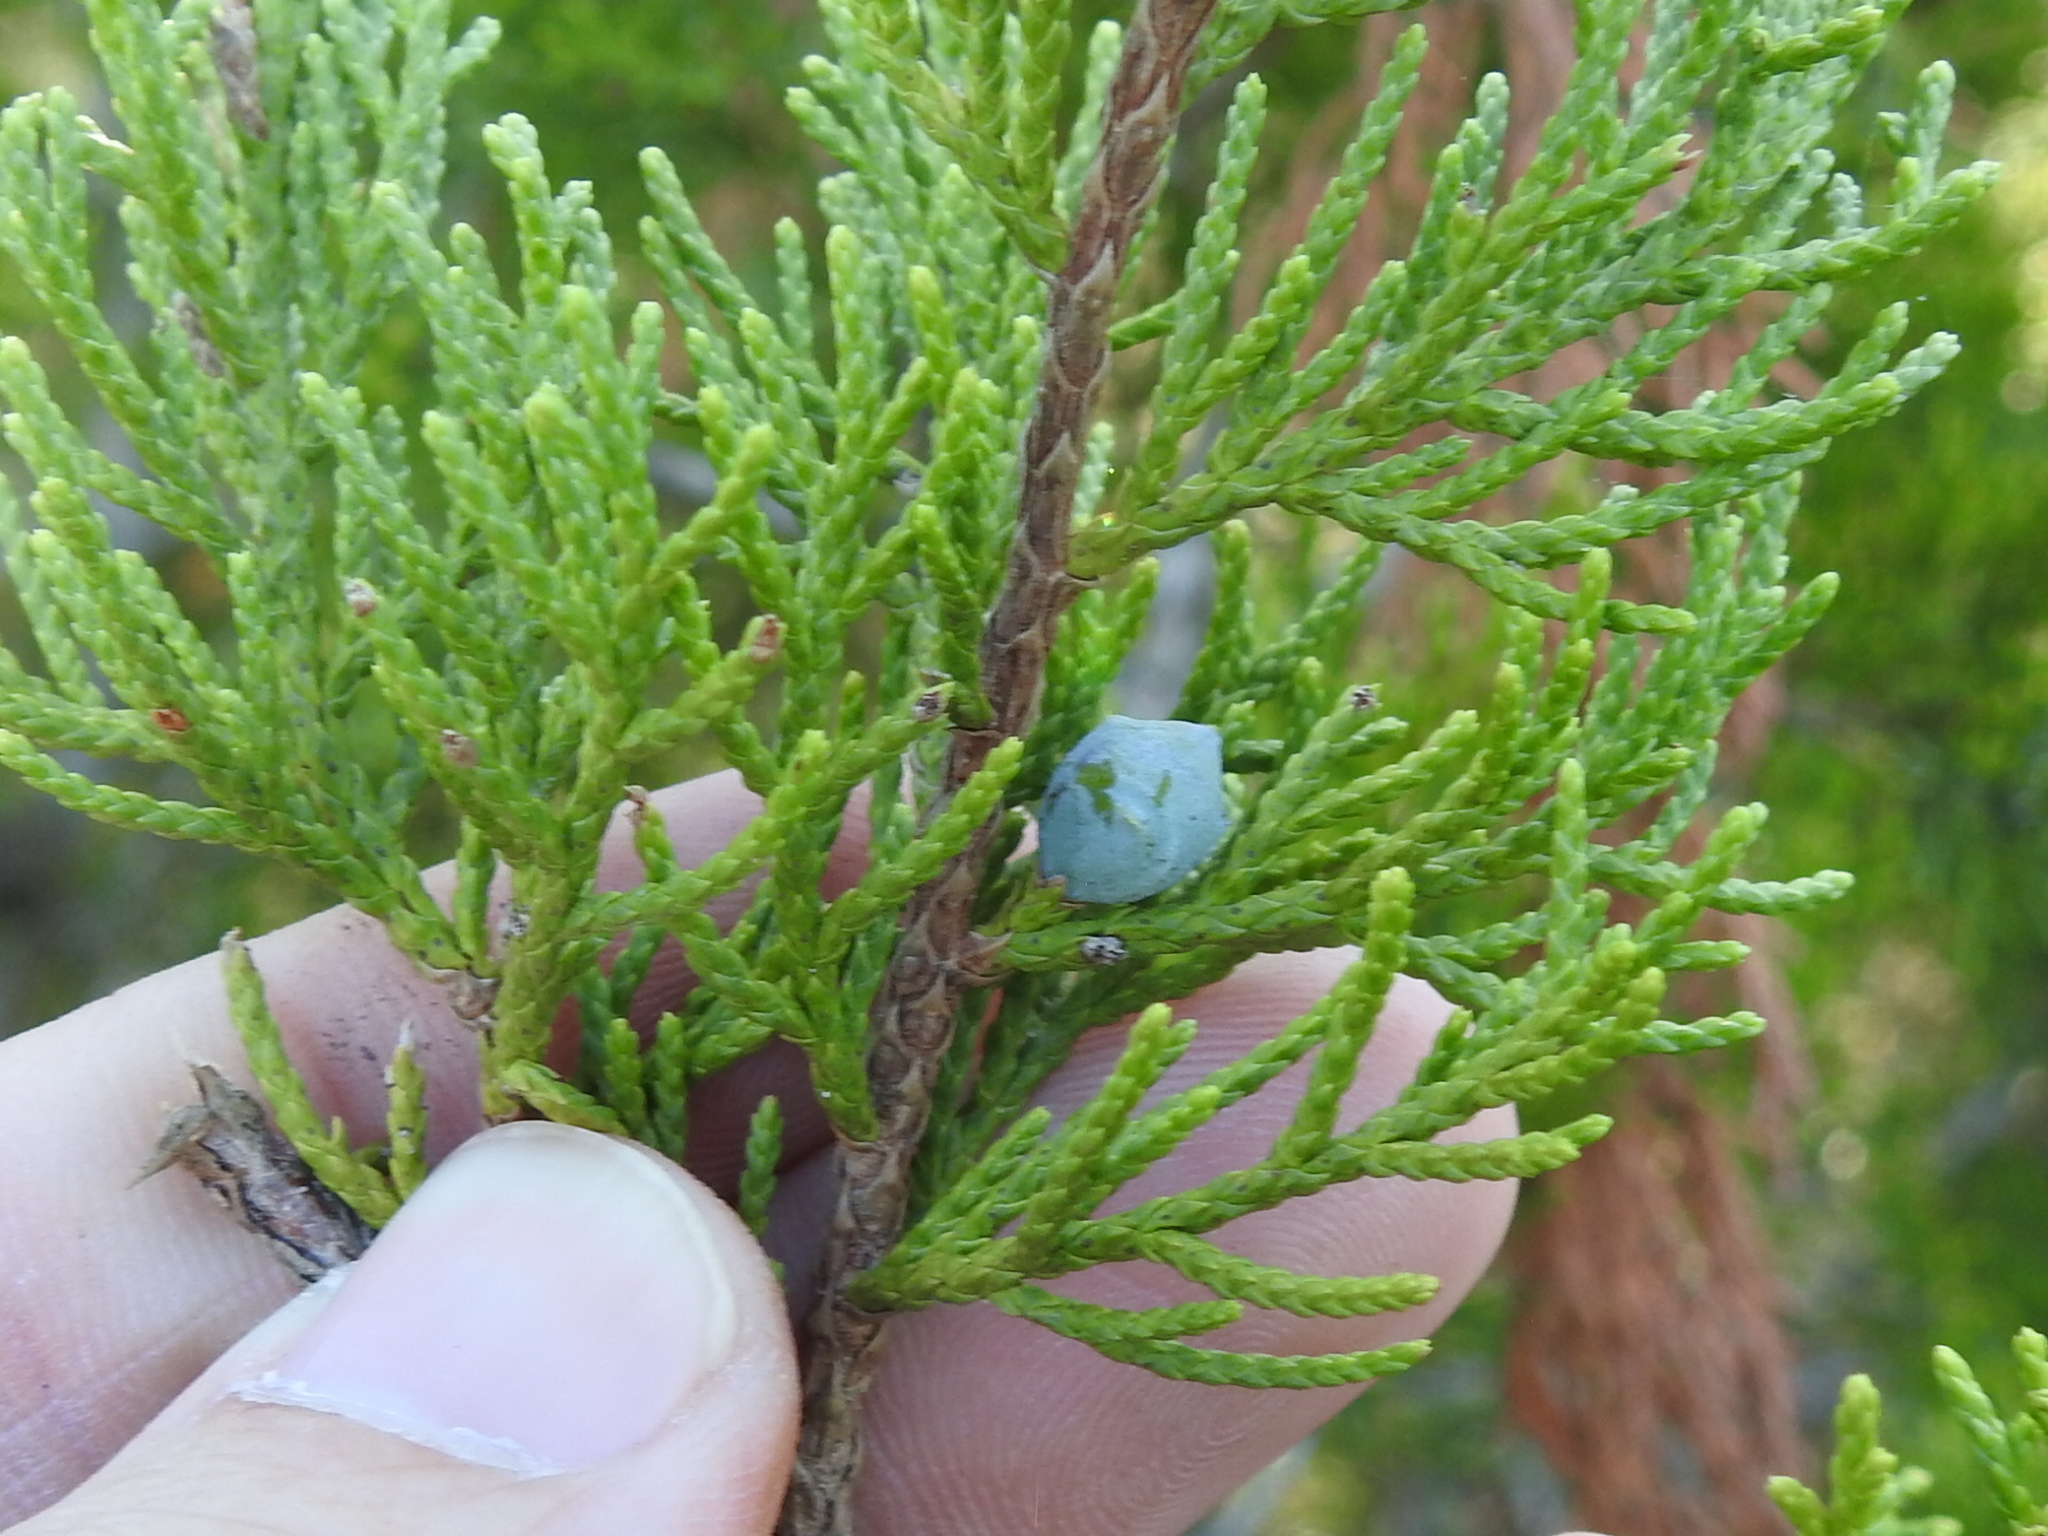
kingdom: Plantae
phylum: Tracheophyta
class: Pinopsida
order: Pinales
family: Cupressaceae
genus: Juniperus
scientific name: Juniperus ashei
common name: Mexican juniper
